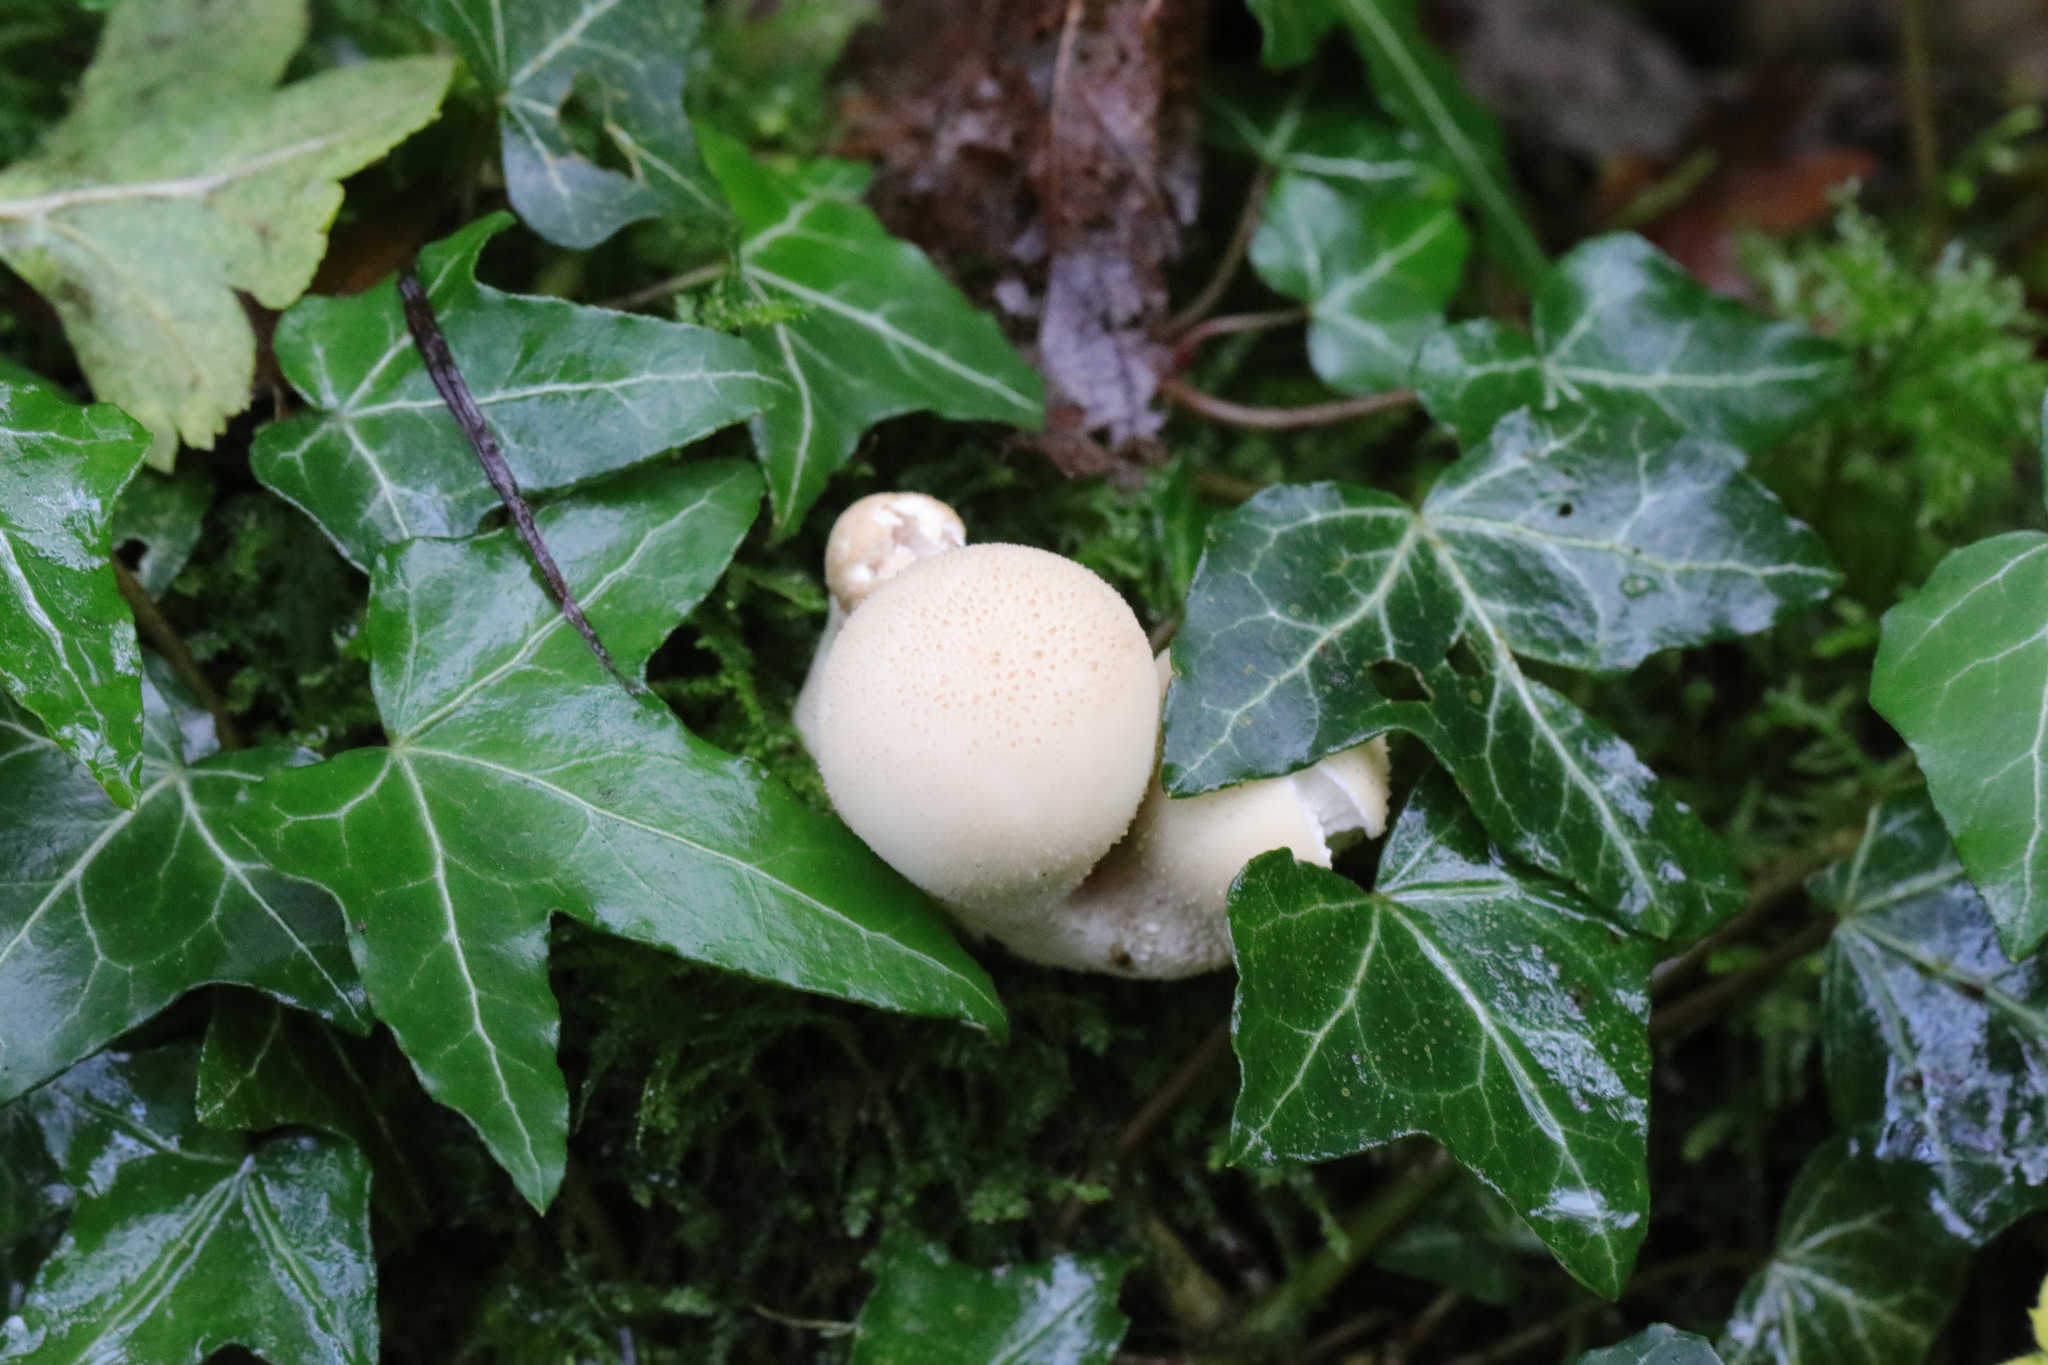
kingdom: Fungi
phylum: Basidiomycota
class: Agaricomycetes
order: Agaricales
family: Lycoperdaceae
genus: Lycoperdon
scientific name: Lycoperdon perlatum
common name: Common puffball
